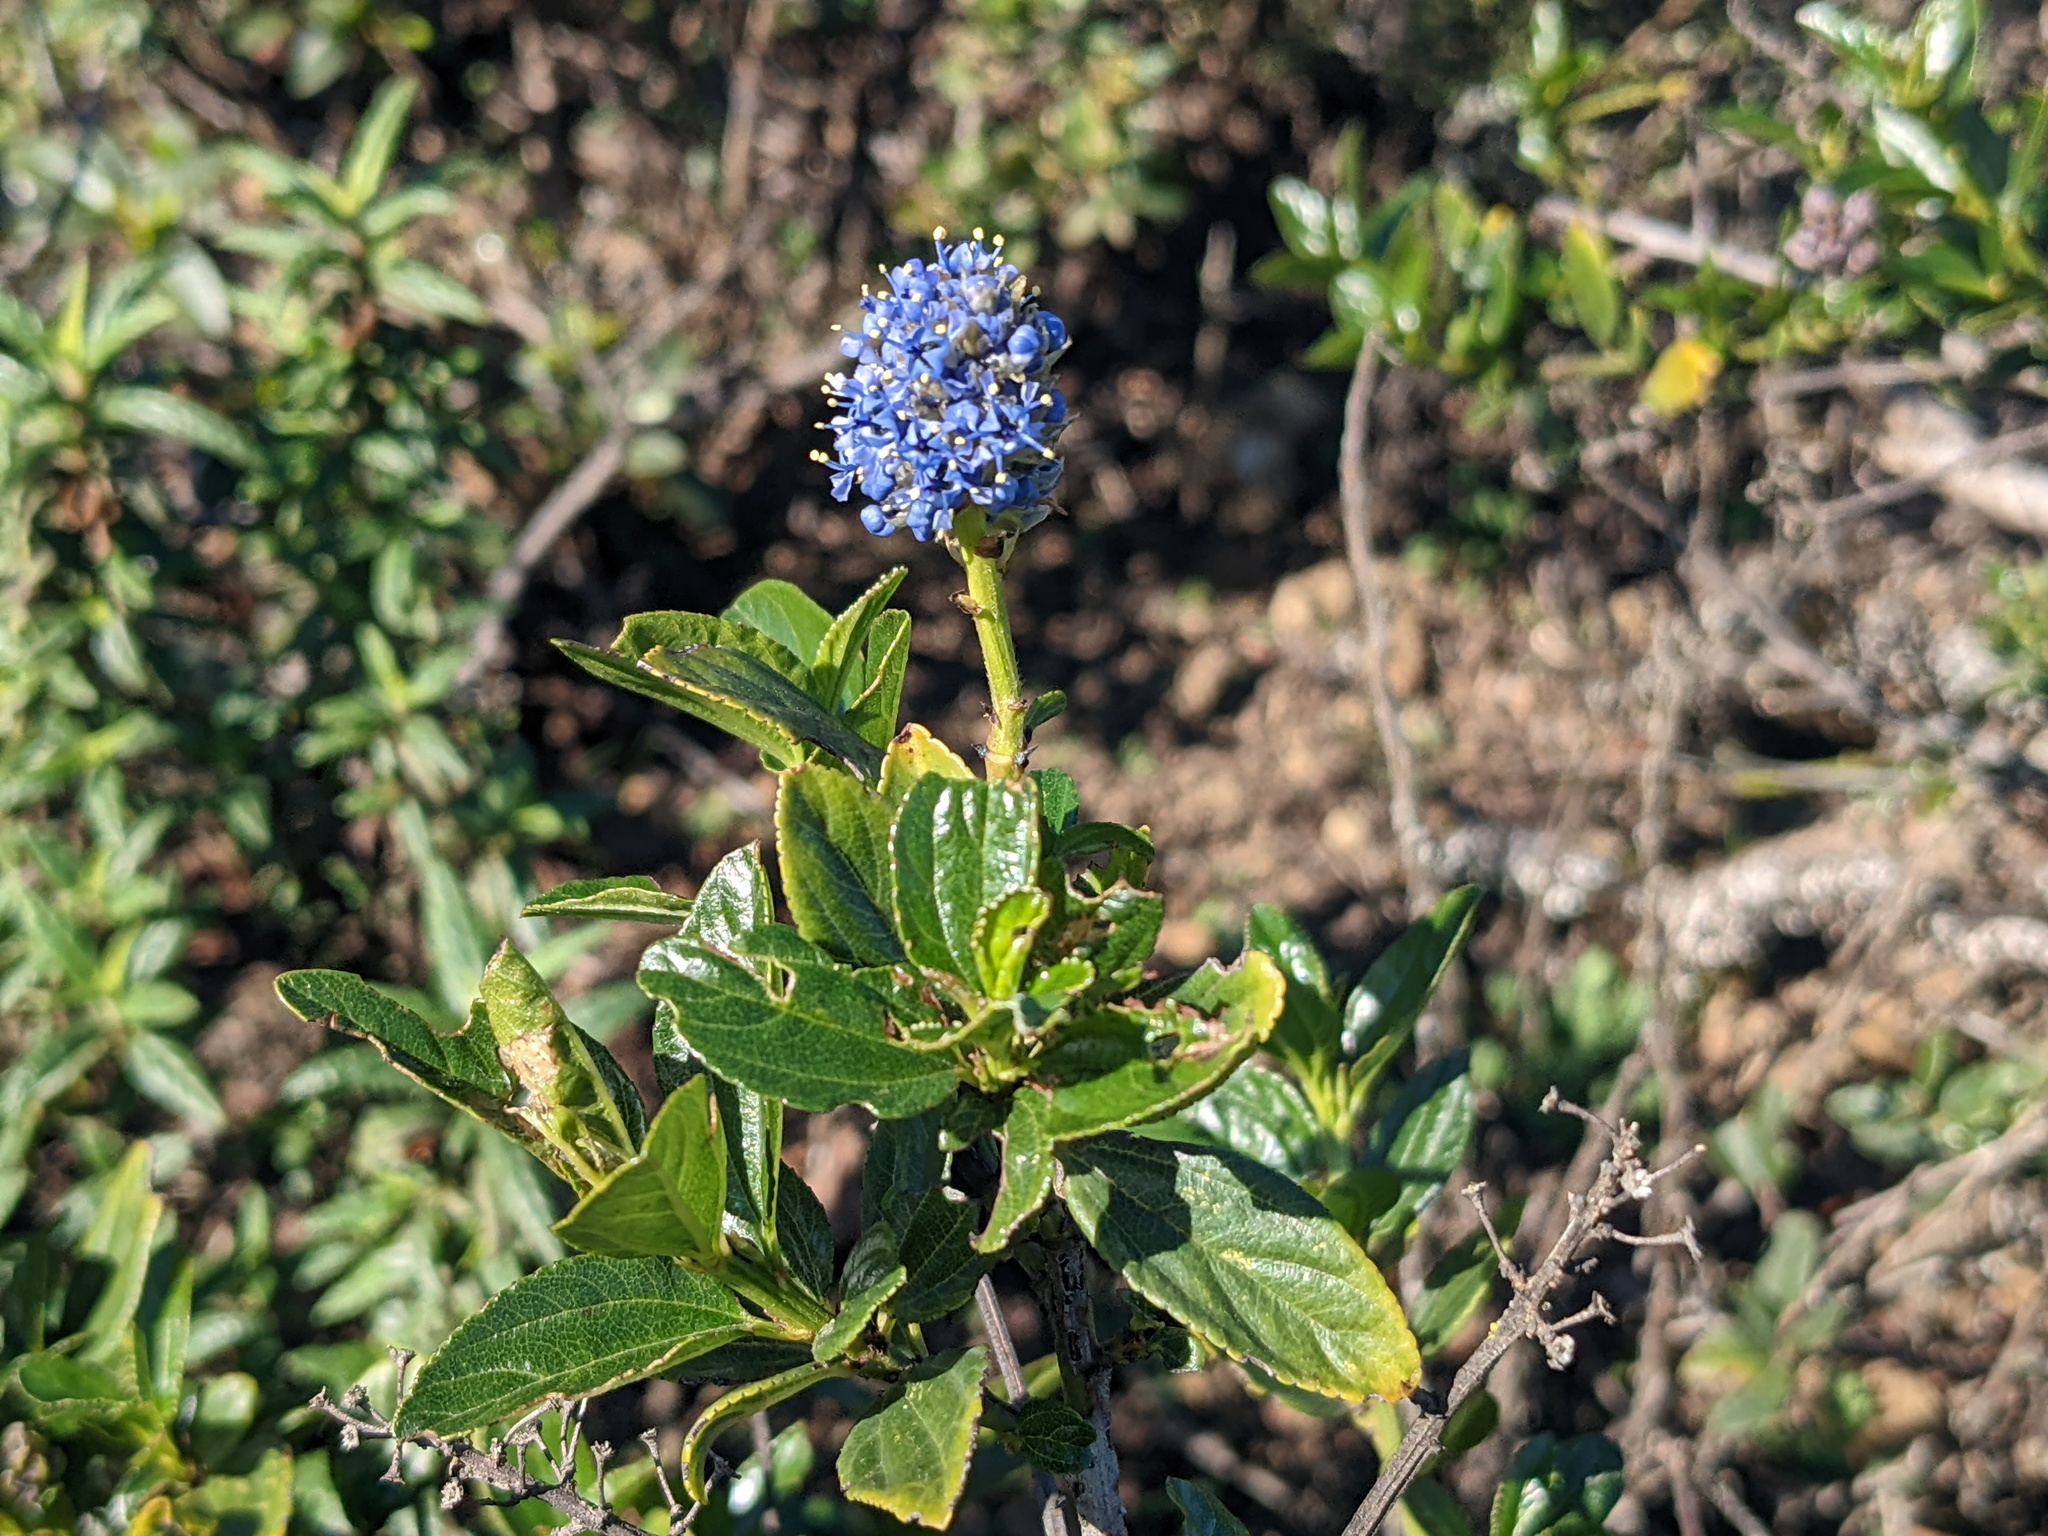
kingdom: Plantae
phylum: Tracheophyta
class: Magnoliopsida
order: Rosales
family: Rhamnaceae
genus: Ceanothus
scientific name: Ceanothus thyrsiflorus
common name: California-lilac
